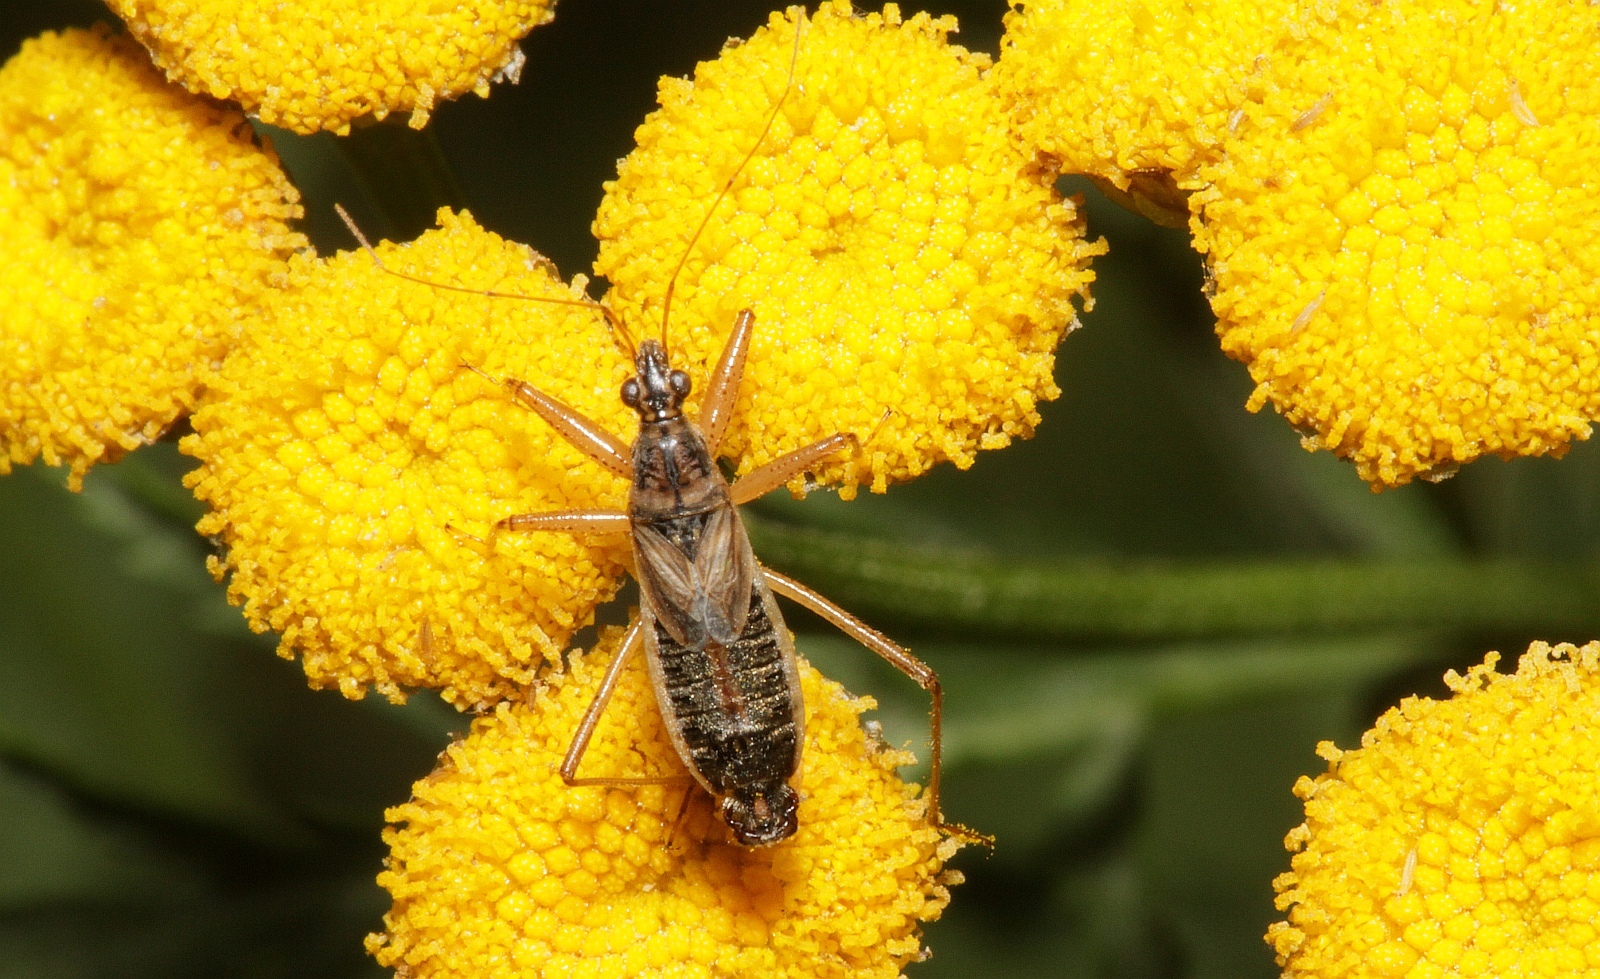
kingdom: Animalia
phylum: Arthropoda
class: Insecta
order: Hemiptera
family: Nabidae
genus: Nabis
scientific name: Nabis flavomarginatus
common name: Broad damselbug
